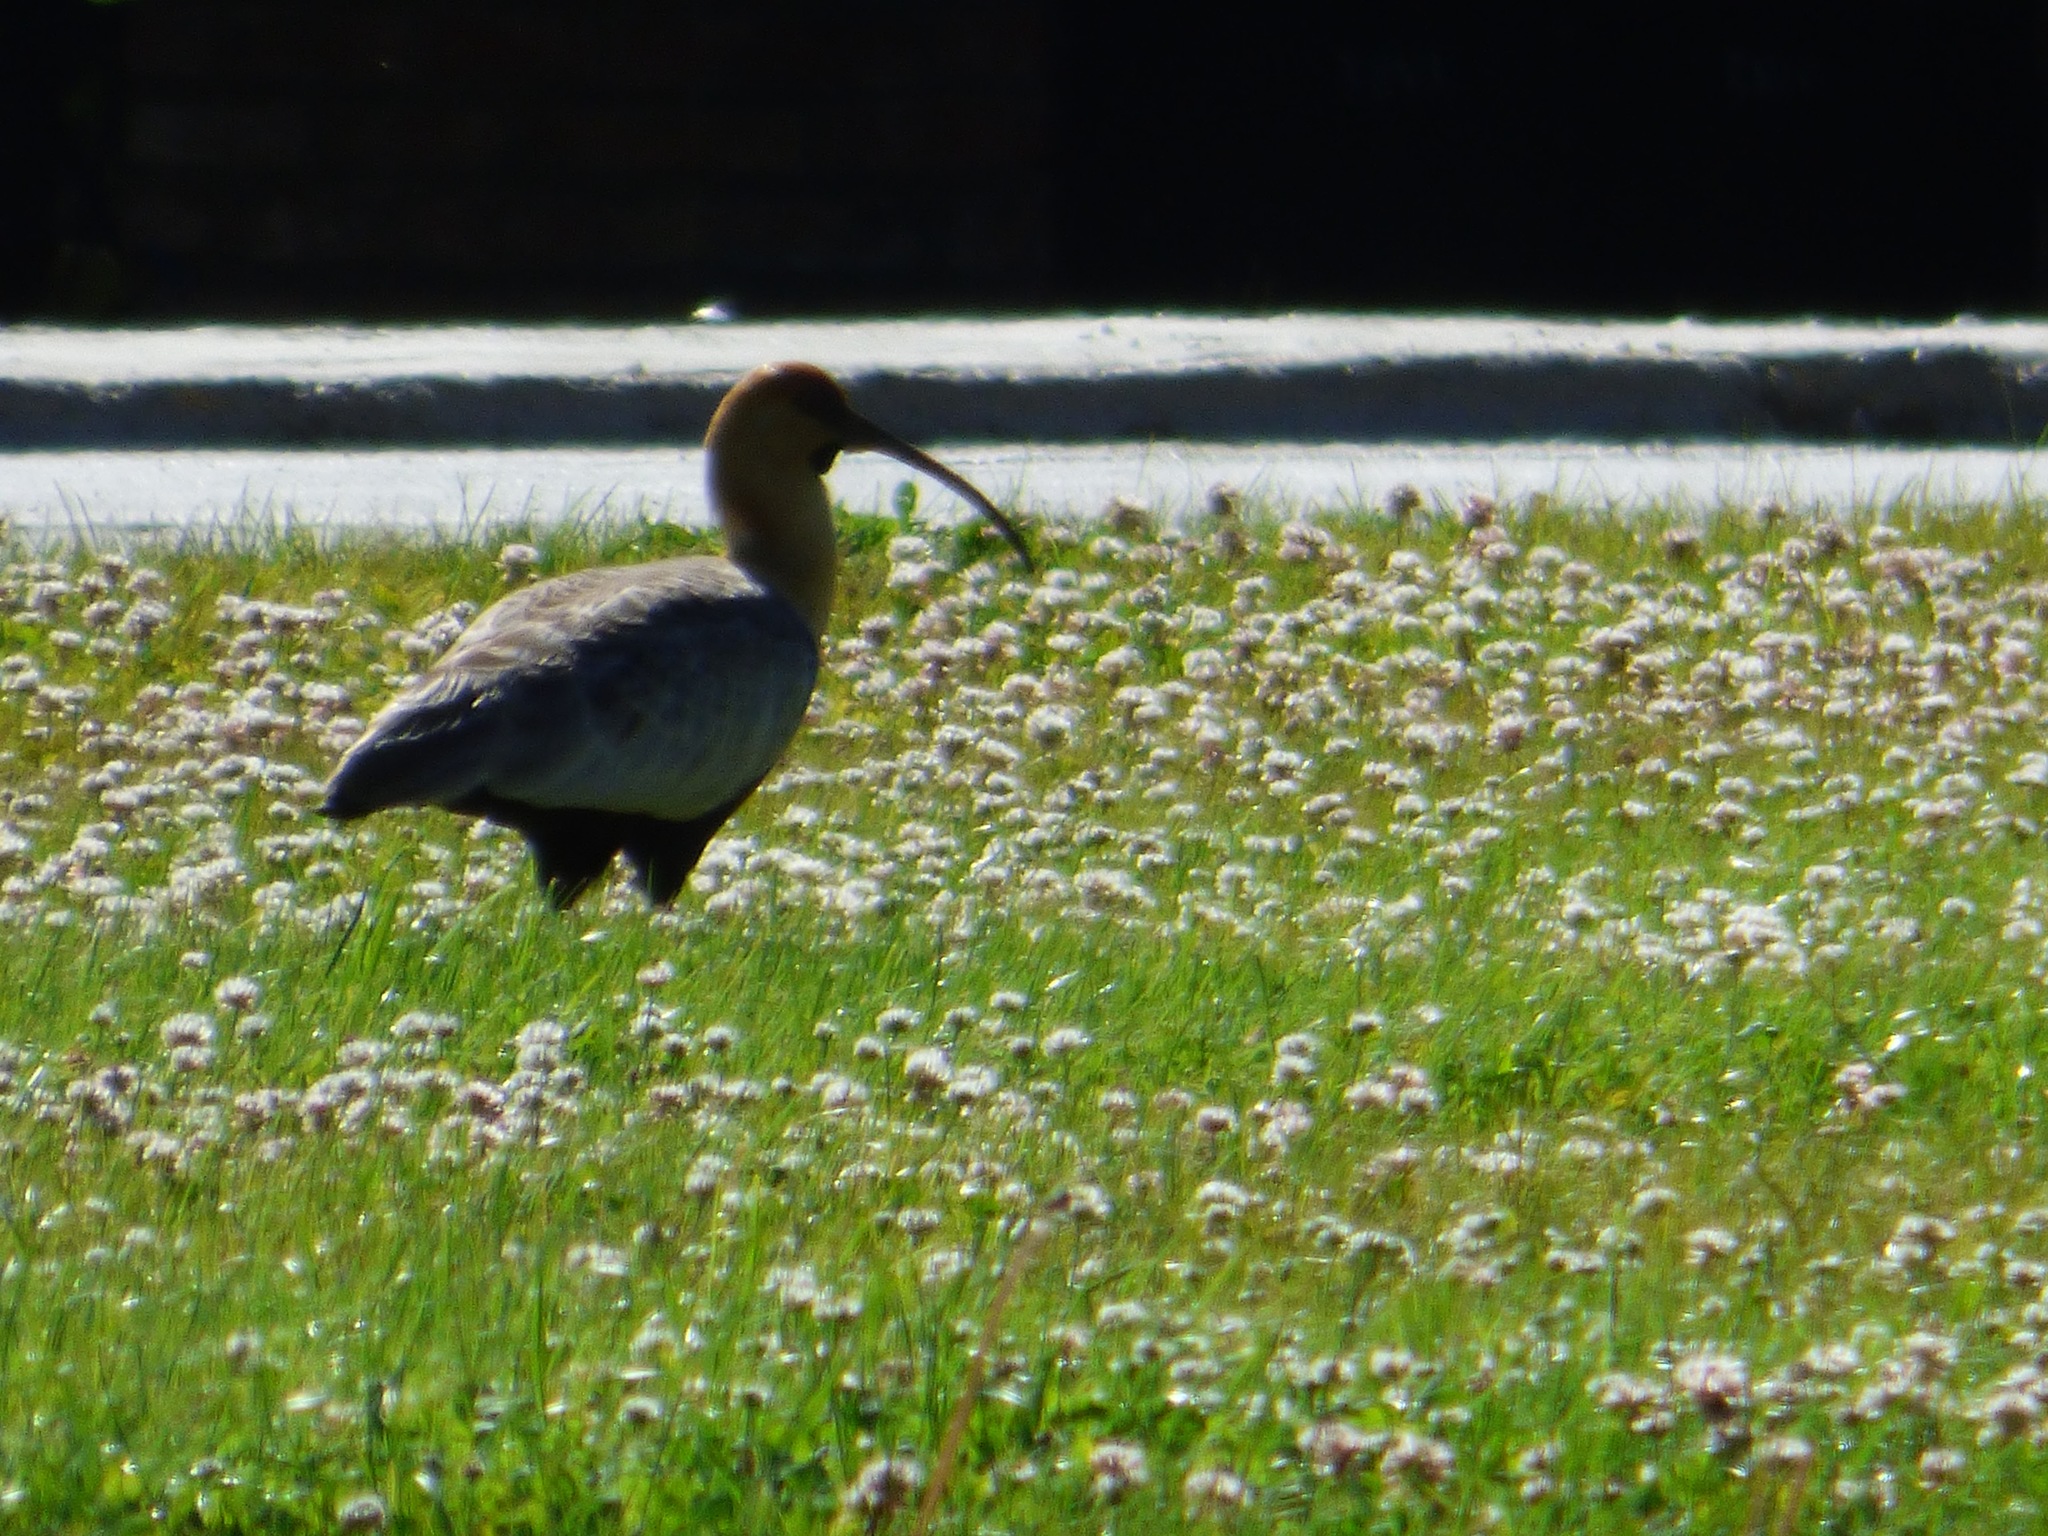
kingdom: Animalia
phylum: Chordata
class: Aves
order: Pelecaniformes
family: Threskiornithidae
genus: Theristicus
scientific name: Theristicus melanopis
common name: Black-faced ibis
